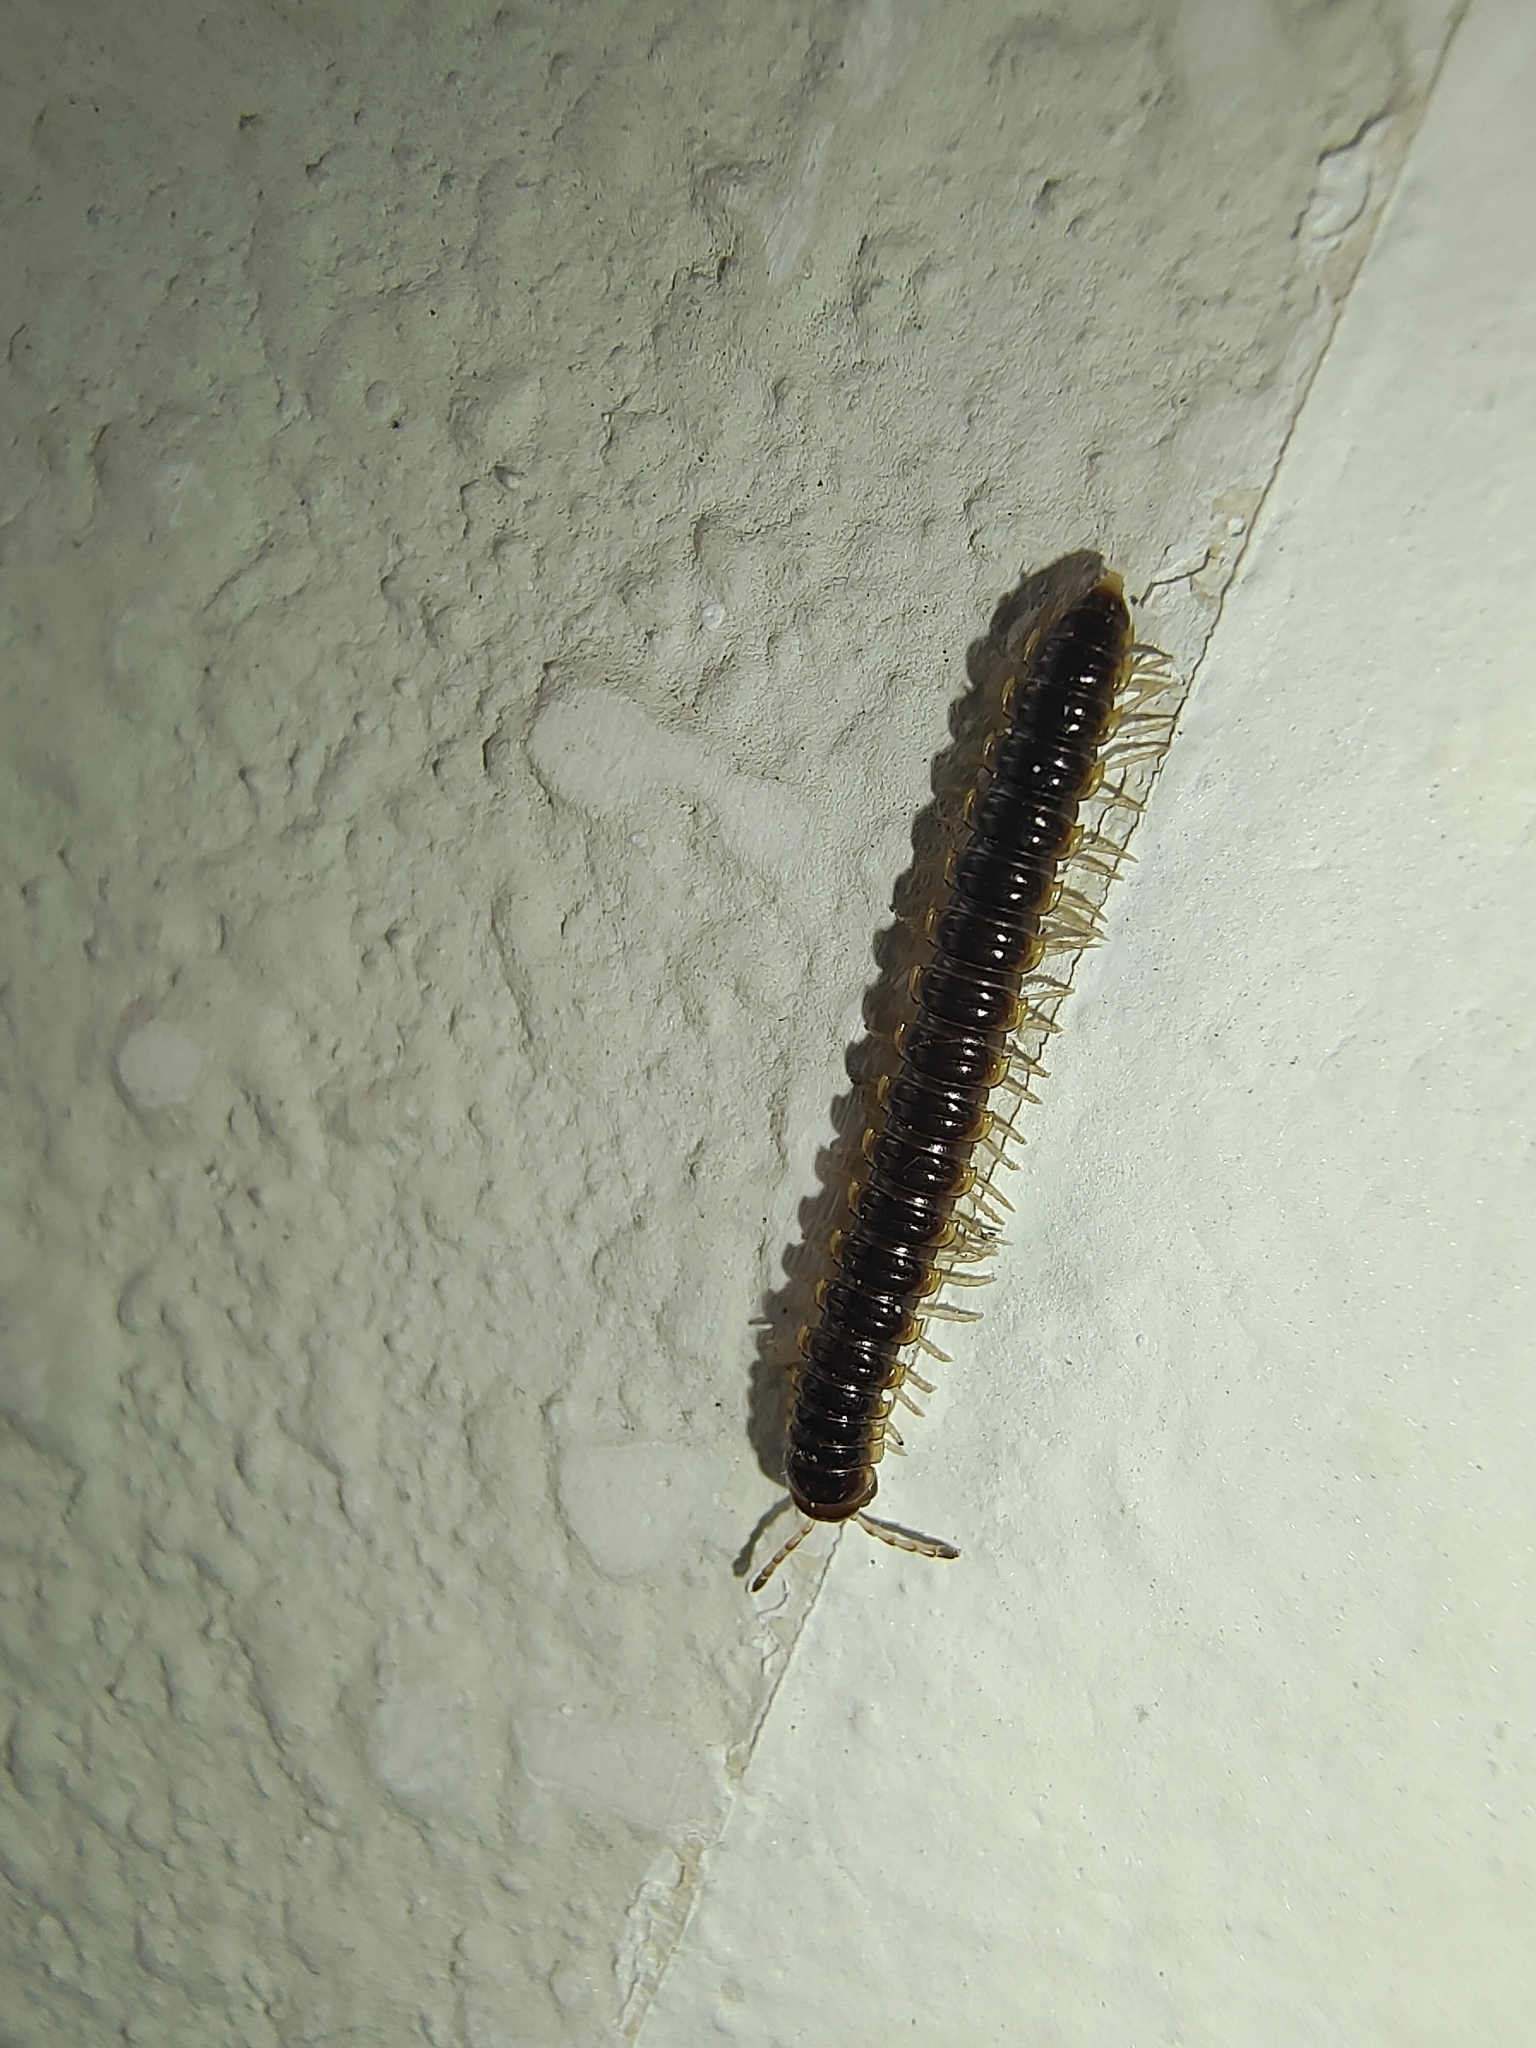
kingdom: Animalia
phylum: Arthropoda
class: Diplopoda
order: Polydesmida
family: Paradoxosomatidae
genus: Orthomorpha
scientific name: Orthomorpha coarctata
